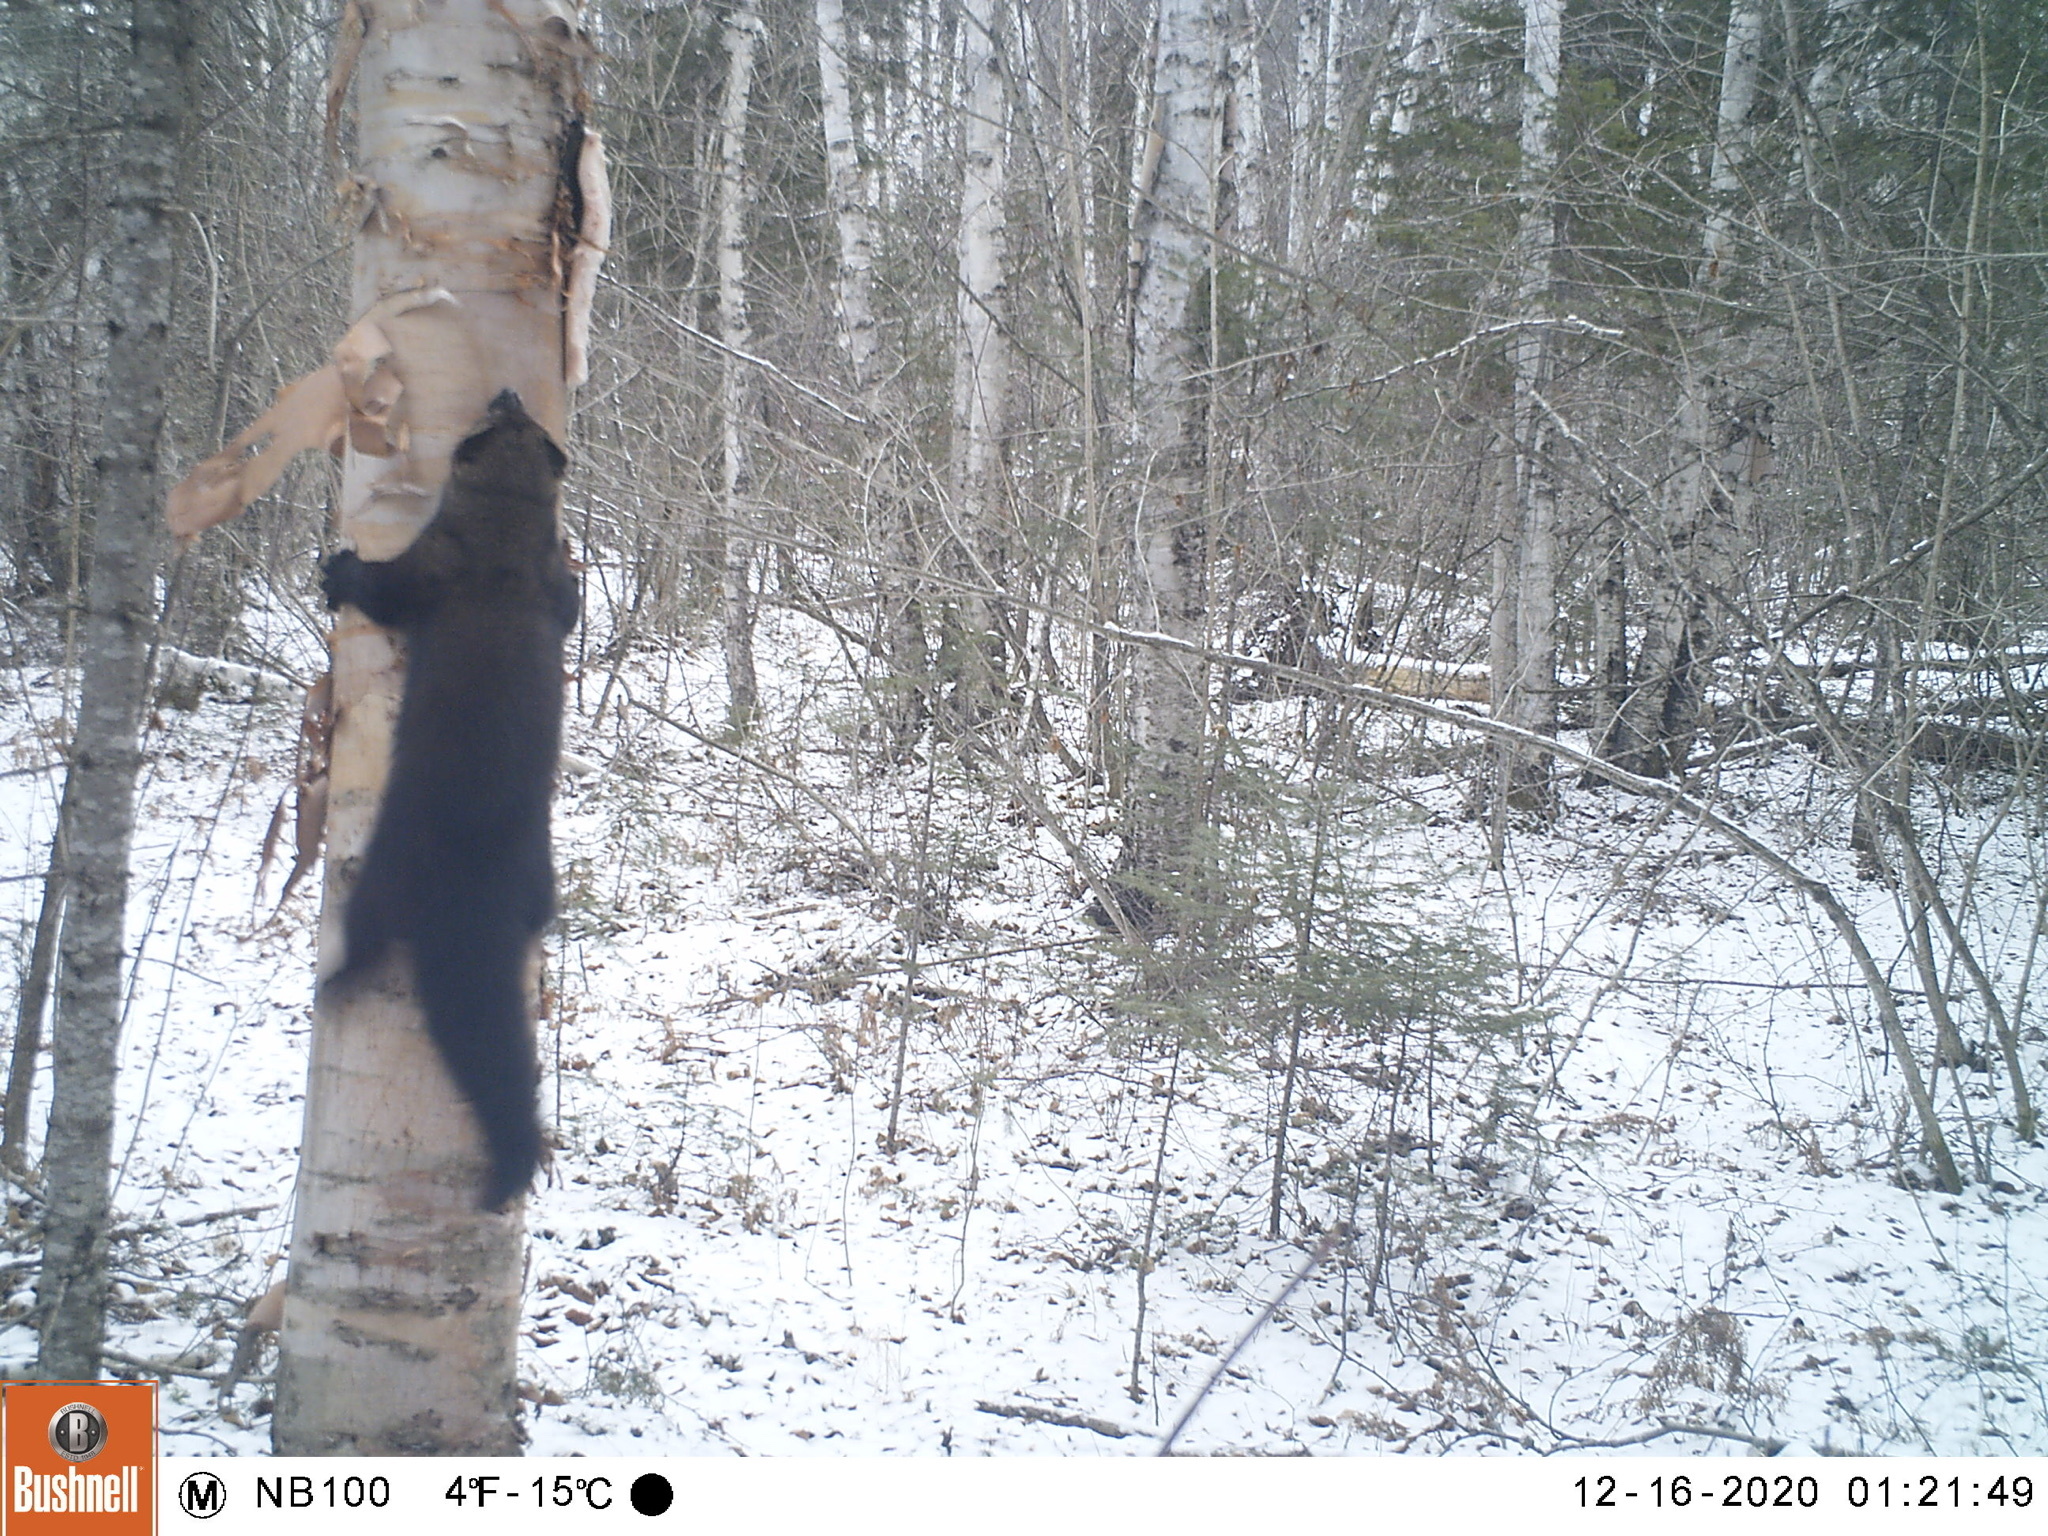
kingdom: Animalia
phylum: Chordata
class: Mammalia
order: Carnivora
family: Mustelidae
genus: Pekania
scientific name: Pekania pennanti
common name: Fisher
